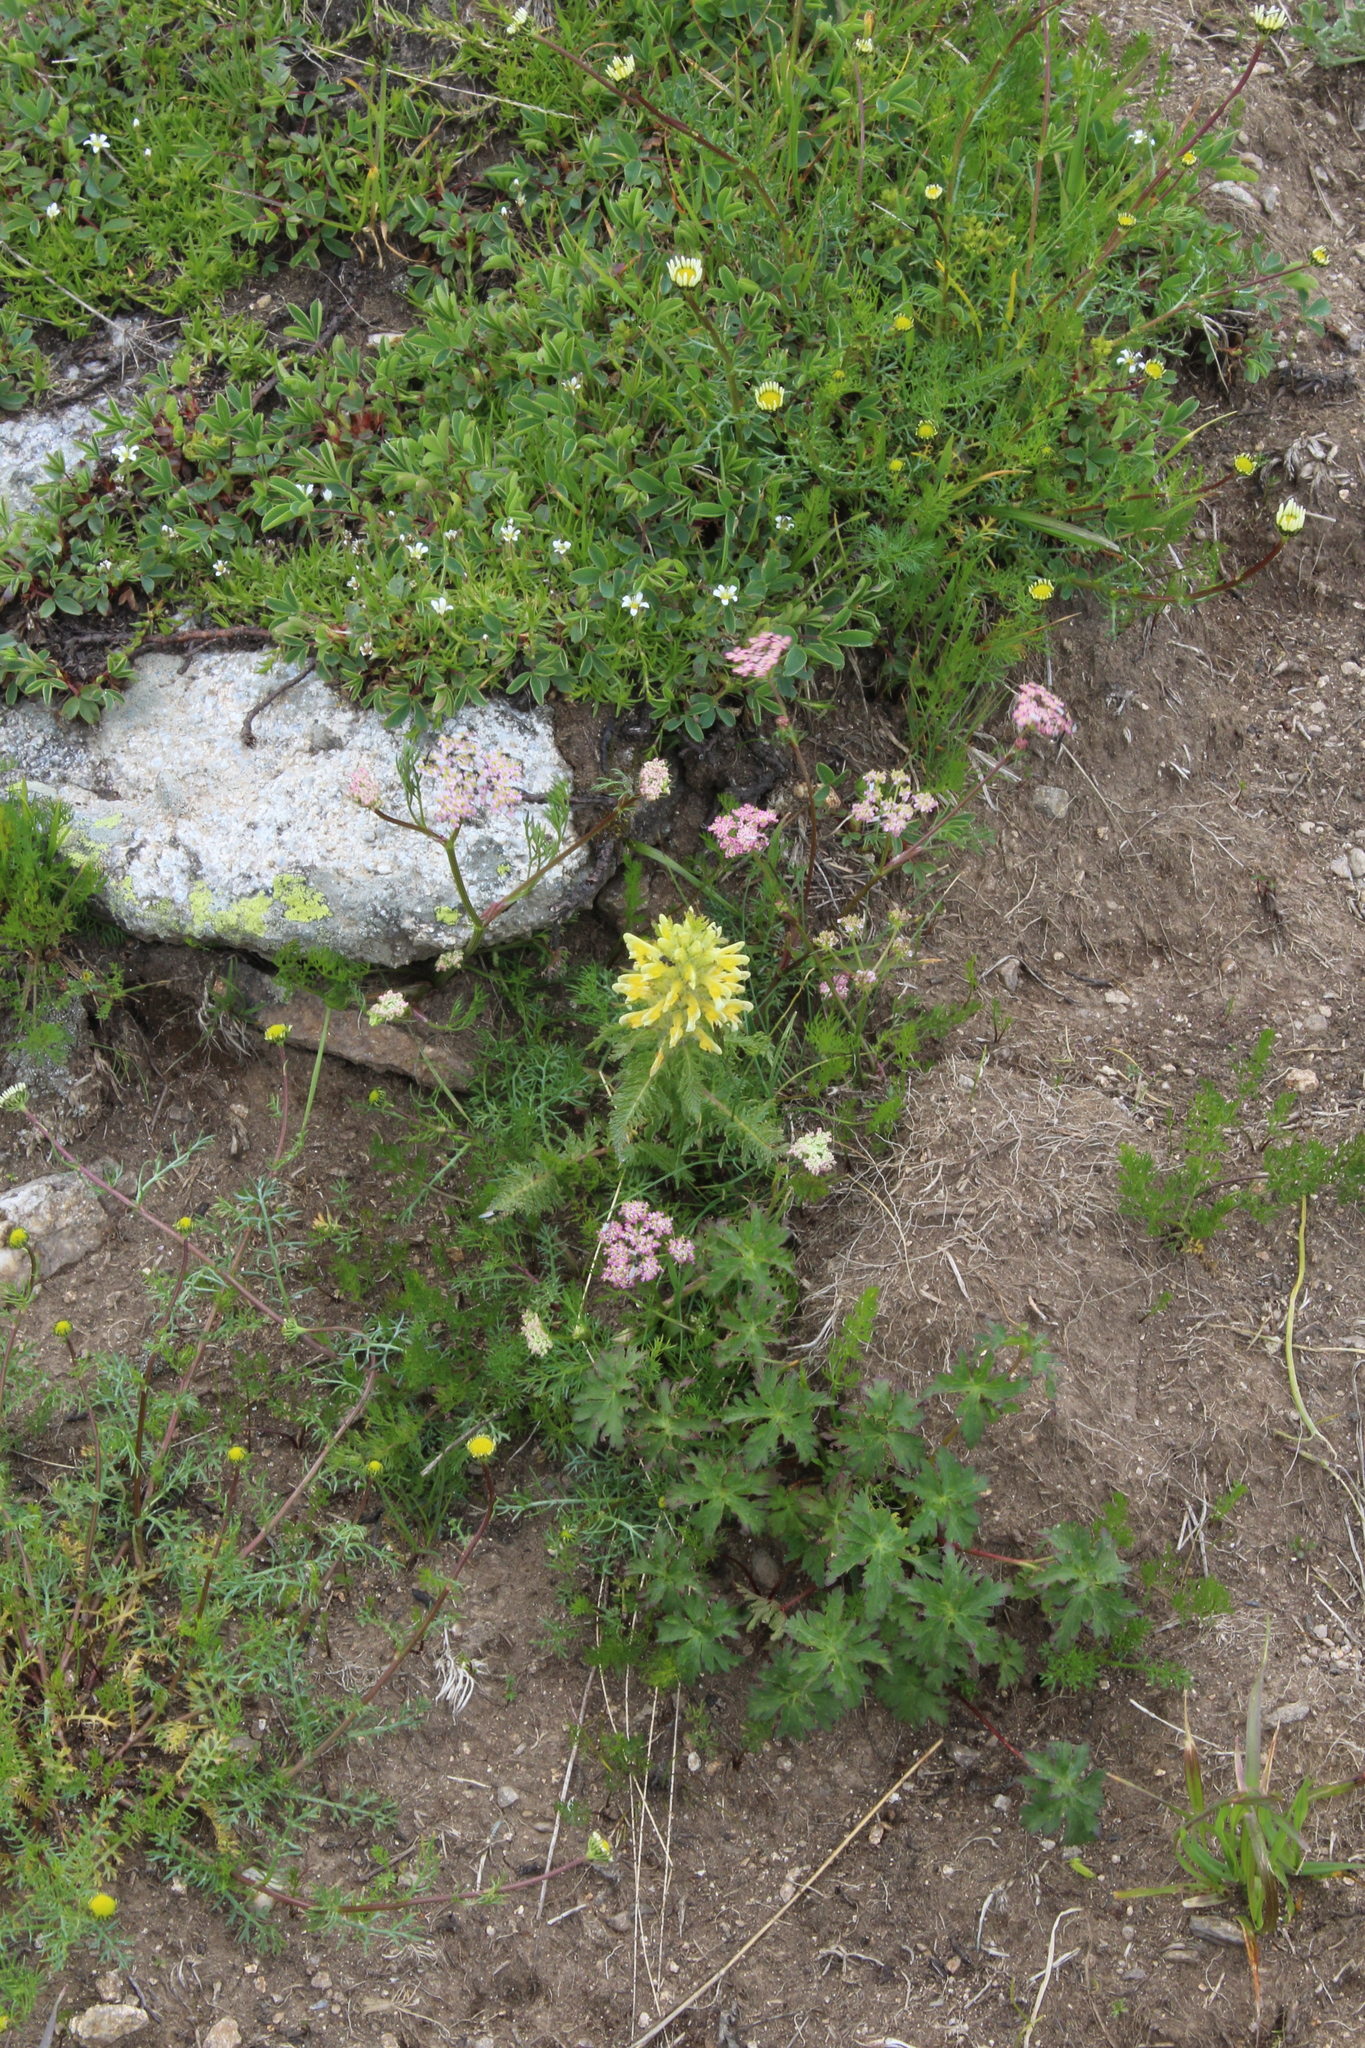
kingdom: Plantae
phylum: Tracheophyta
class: Magnoliopsida
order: Lamiales
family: Orobanchaceae
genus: Pedicularis
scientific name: Pedicularis condensata
